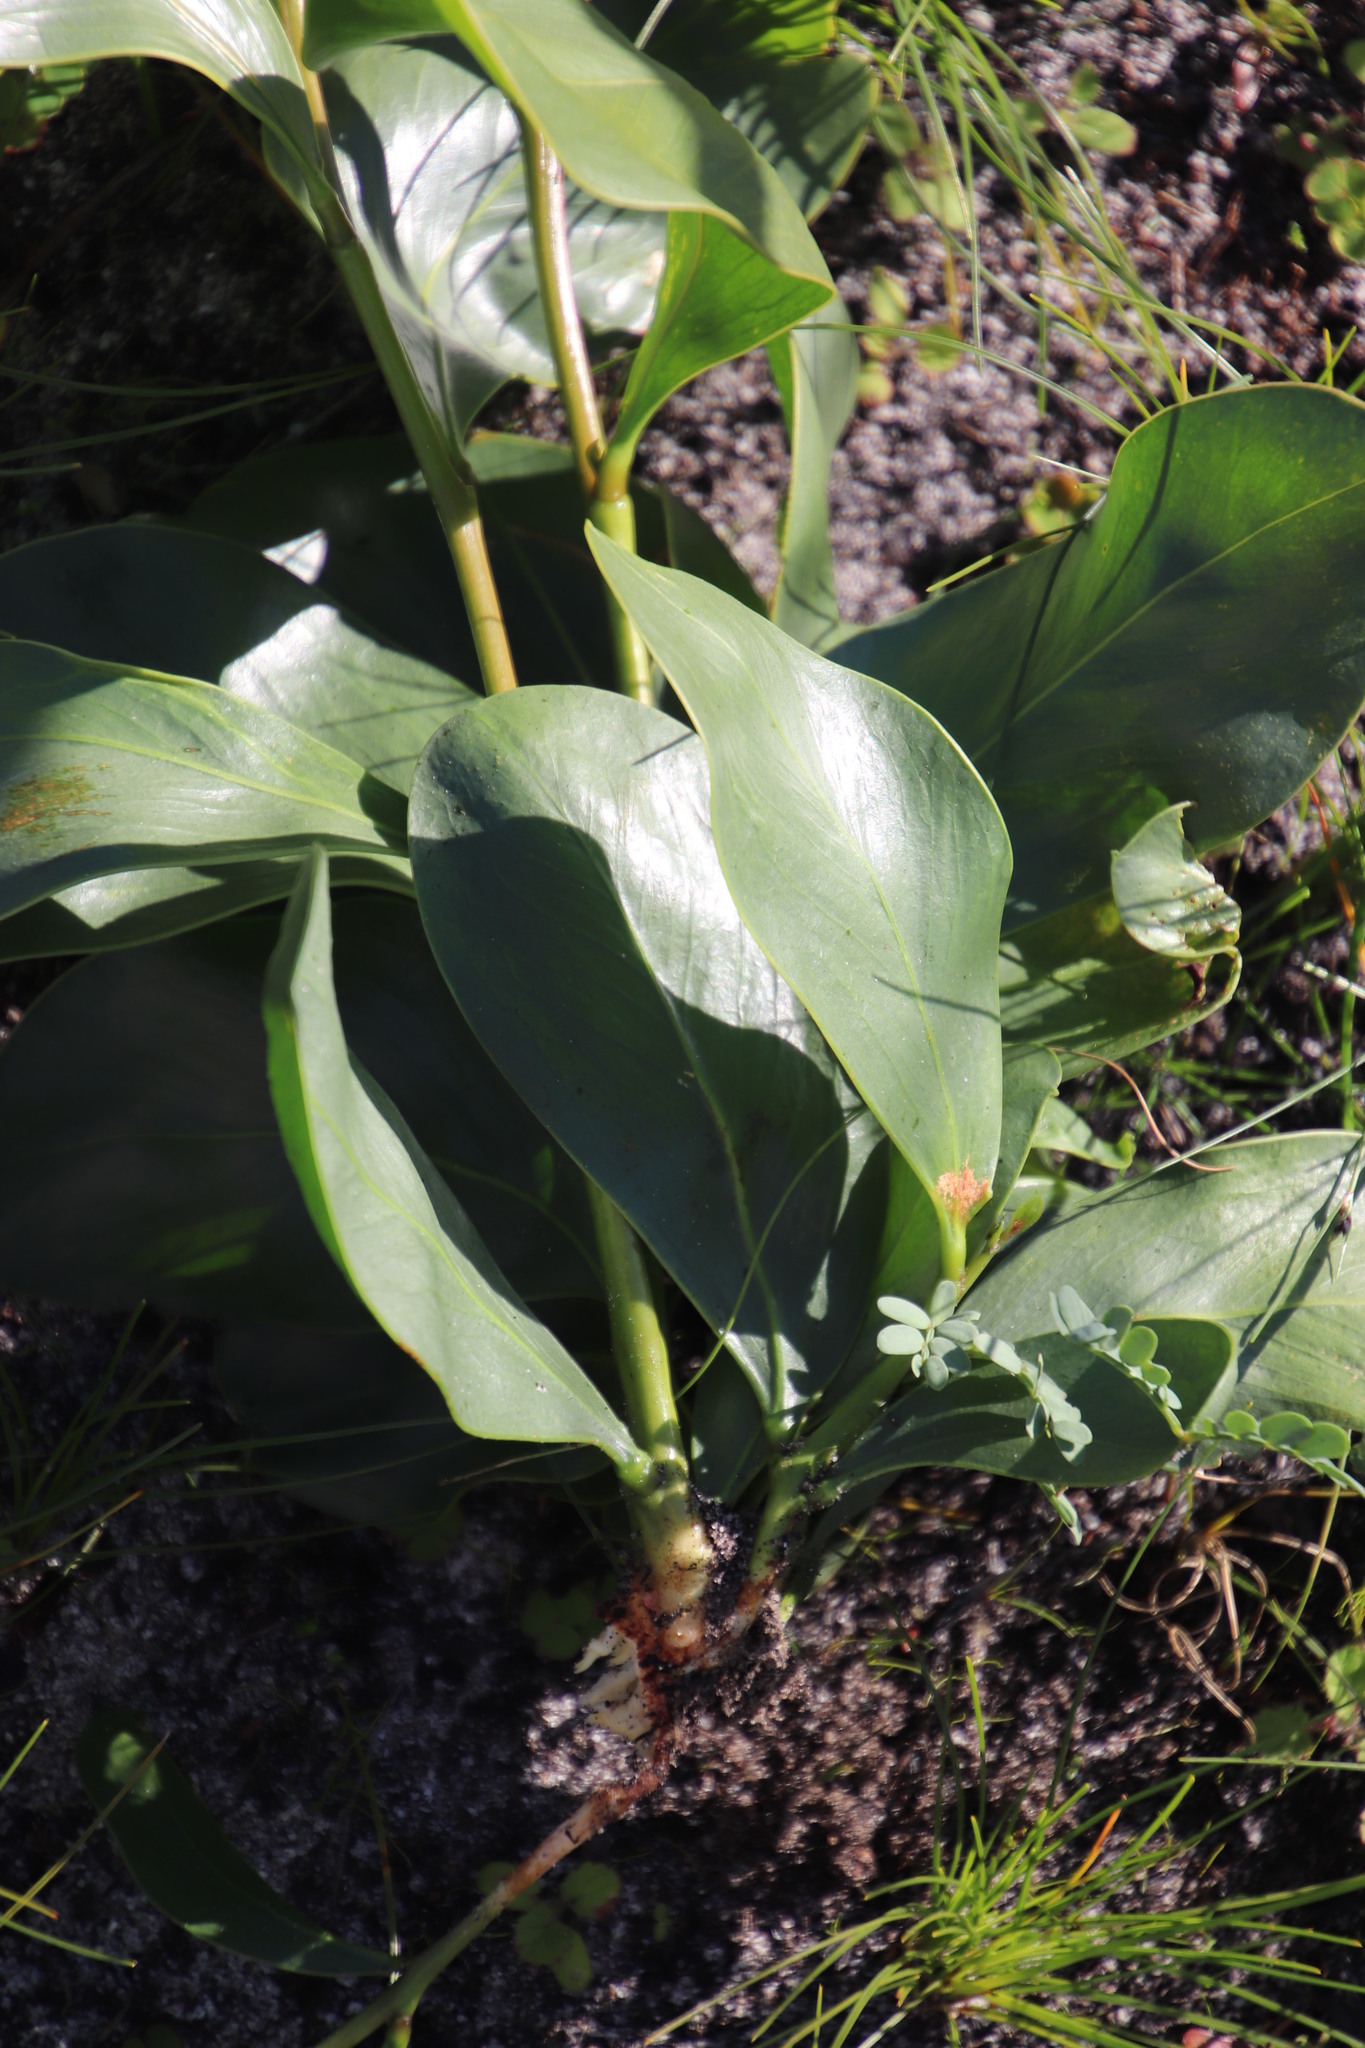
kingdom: Plantae
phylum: Tracheophyta
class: Magnoliopsida
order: Fabales
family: Fabaceae
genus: Acacia
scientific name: Acacia pycnantha
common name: Golden wattle
